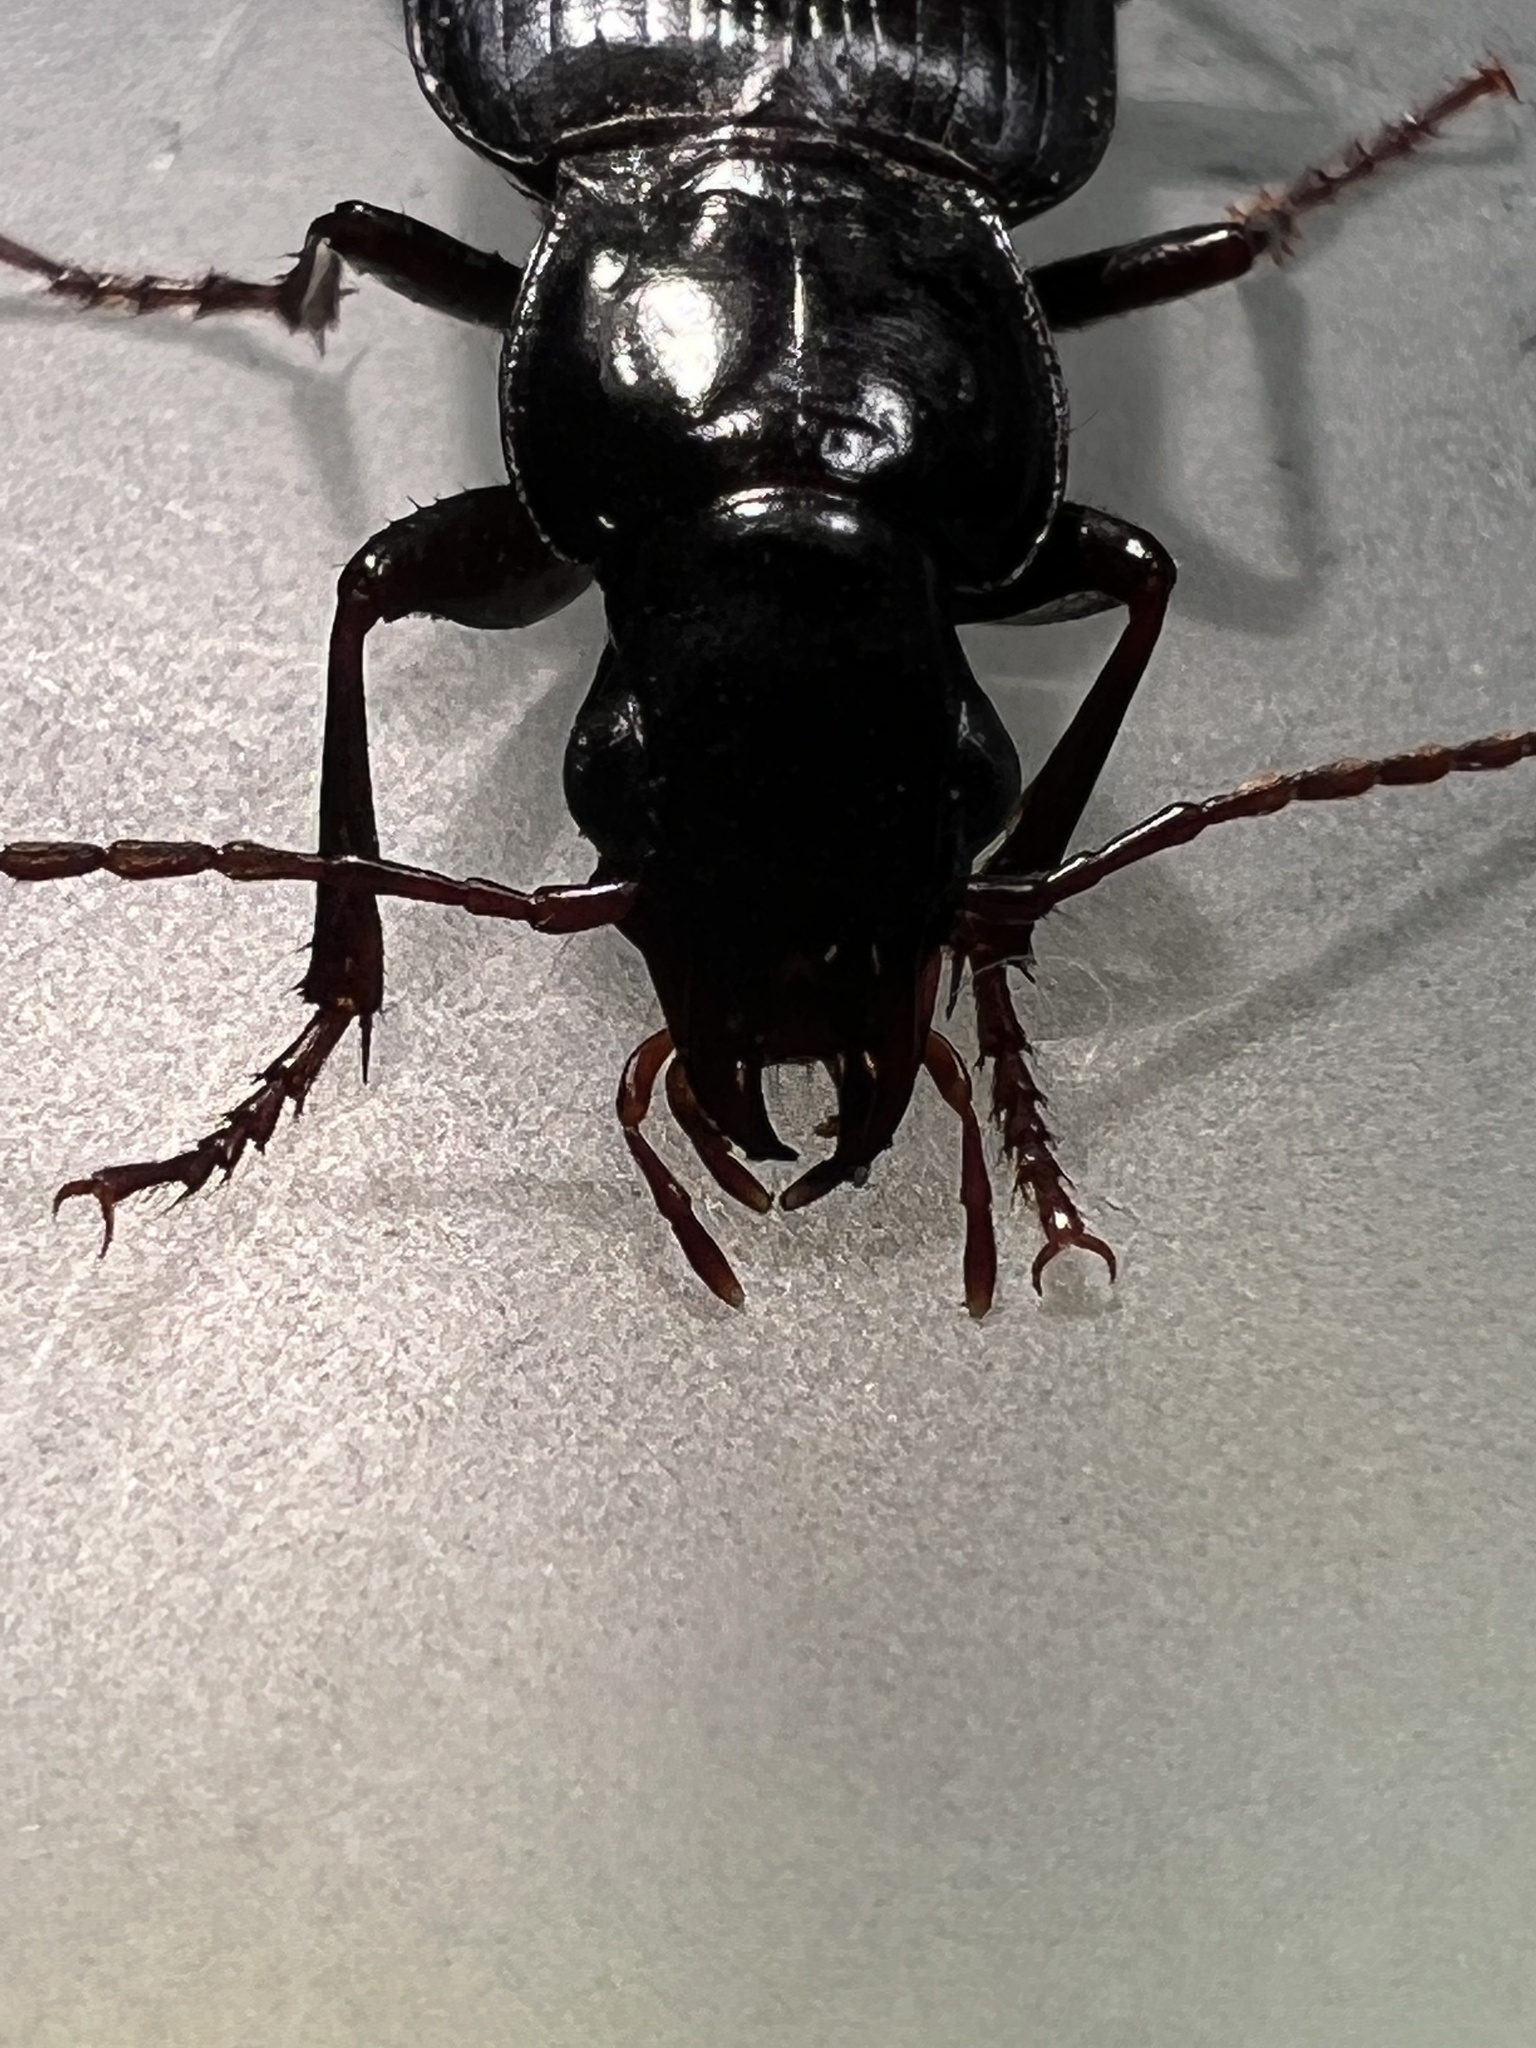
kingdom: Animalia
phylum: Arthropoda
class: Insecta
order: Coleoptera
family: Carabidae
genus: Laemostenus
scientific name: Laemostenus complanatus
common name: Cosmopolitan ground beetle
